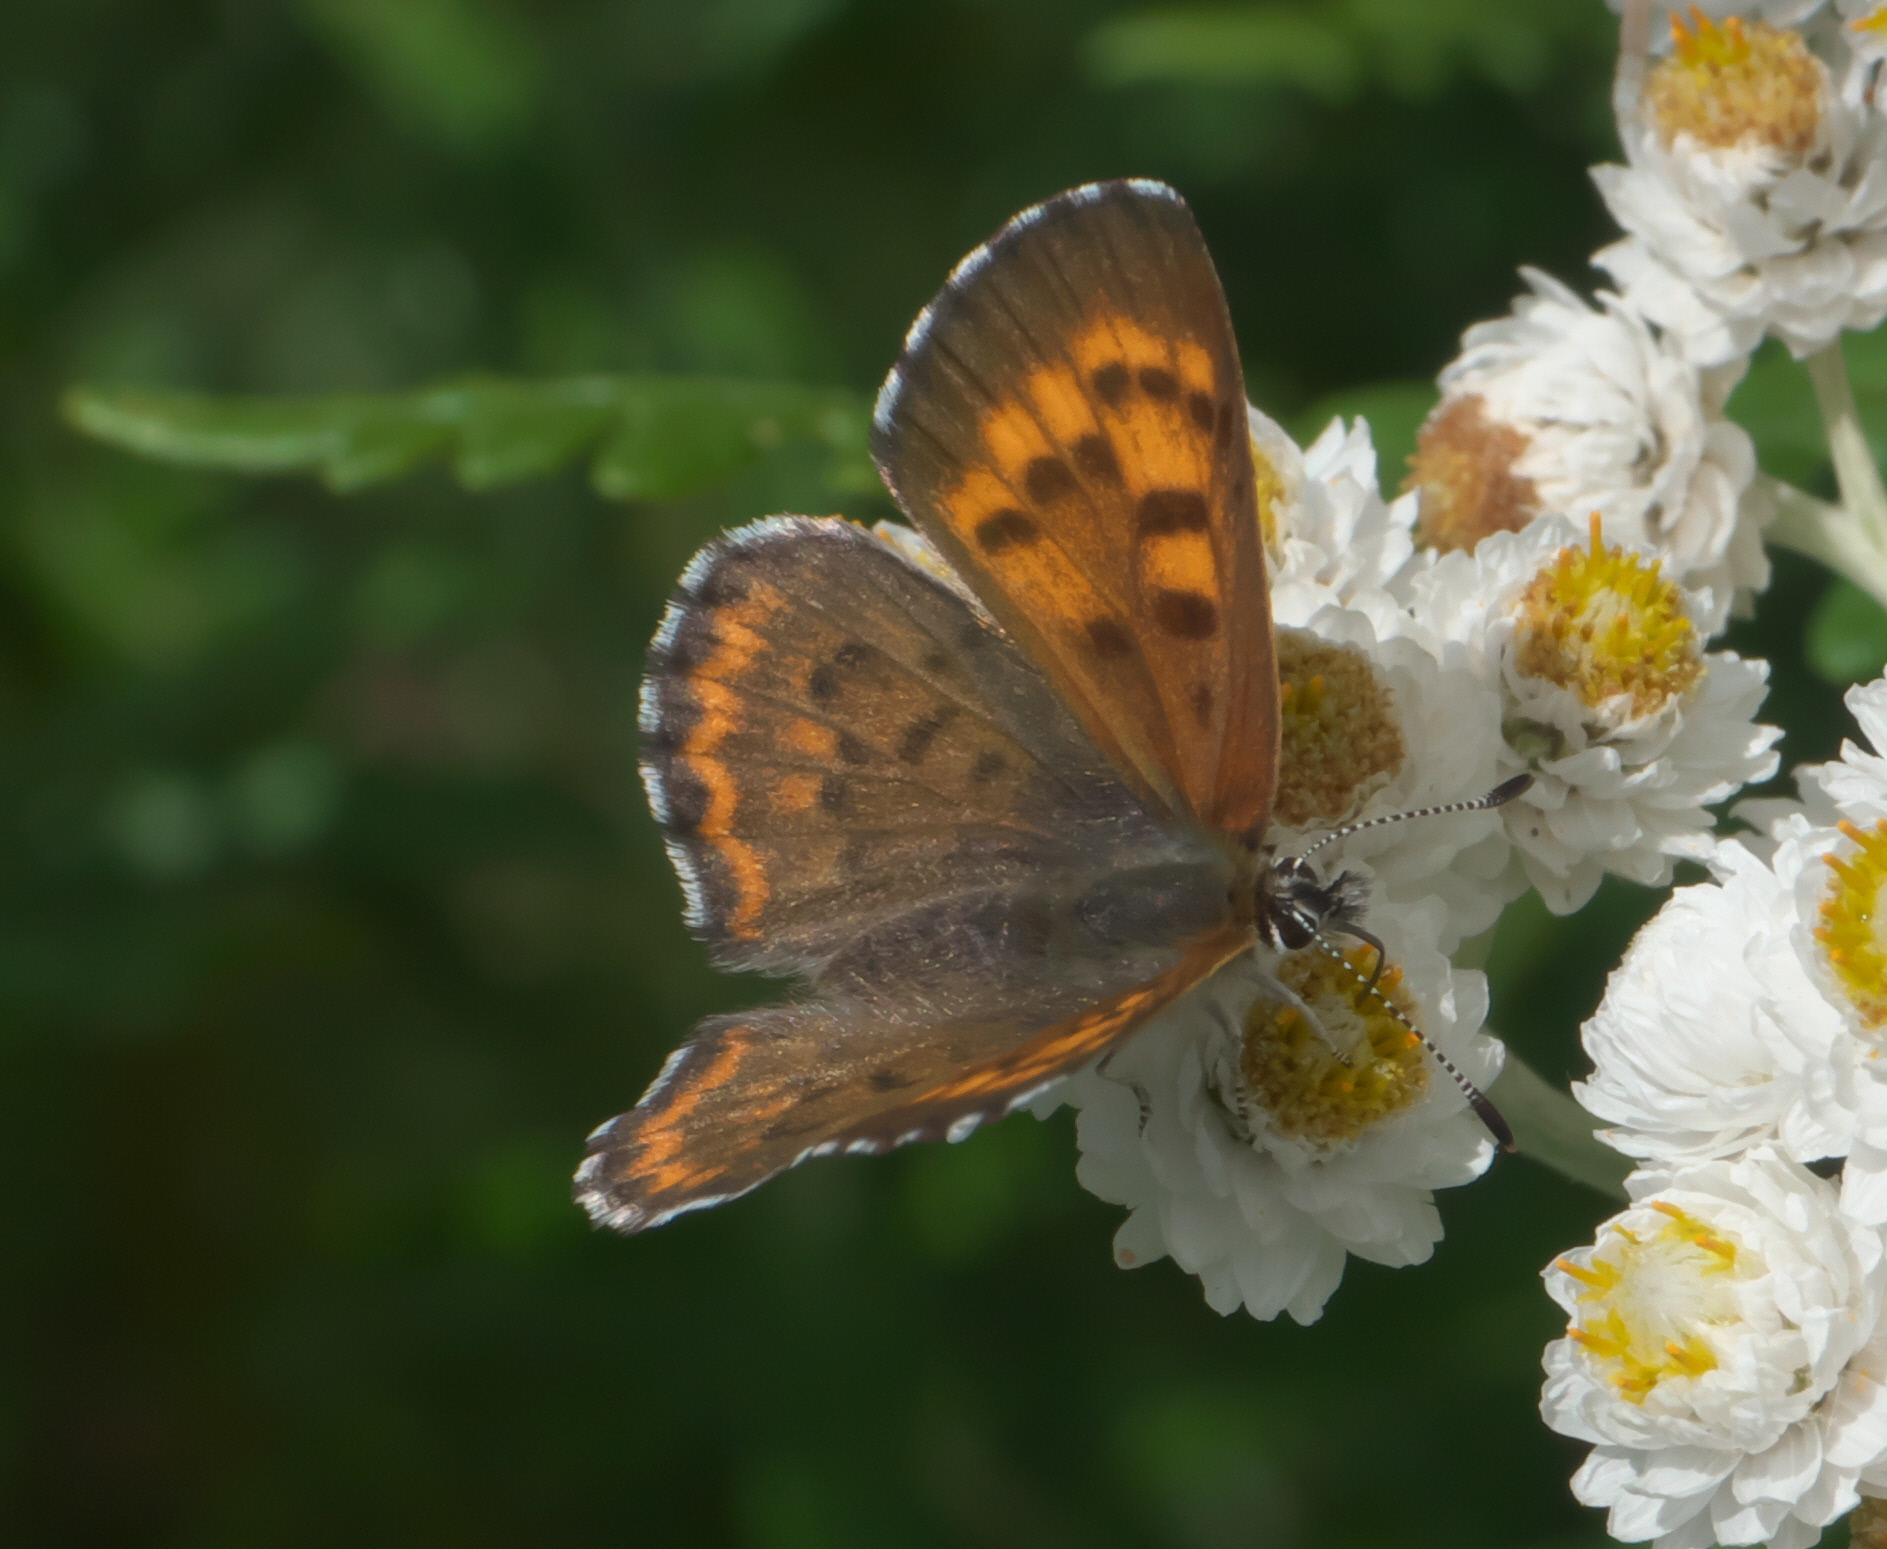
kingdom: Animalia
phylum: Arthropoda
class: Insecta
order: Lepidoptera
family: Lycaenidae
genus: Tharsalea
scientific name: Tharsalea mariposa
